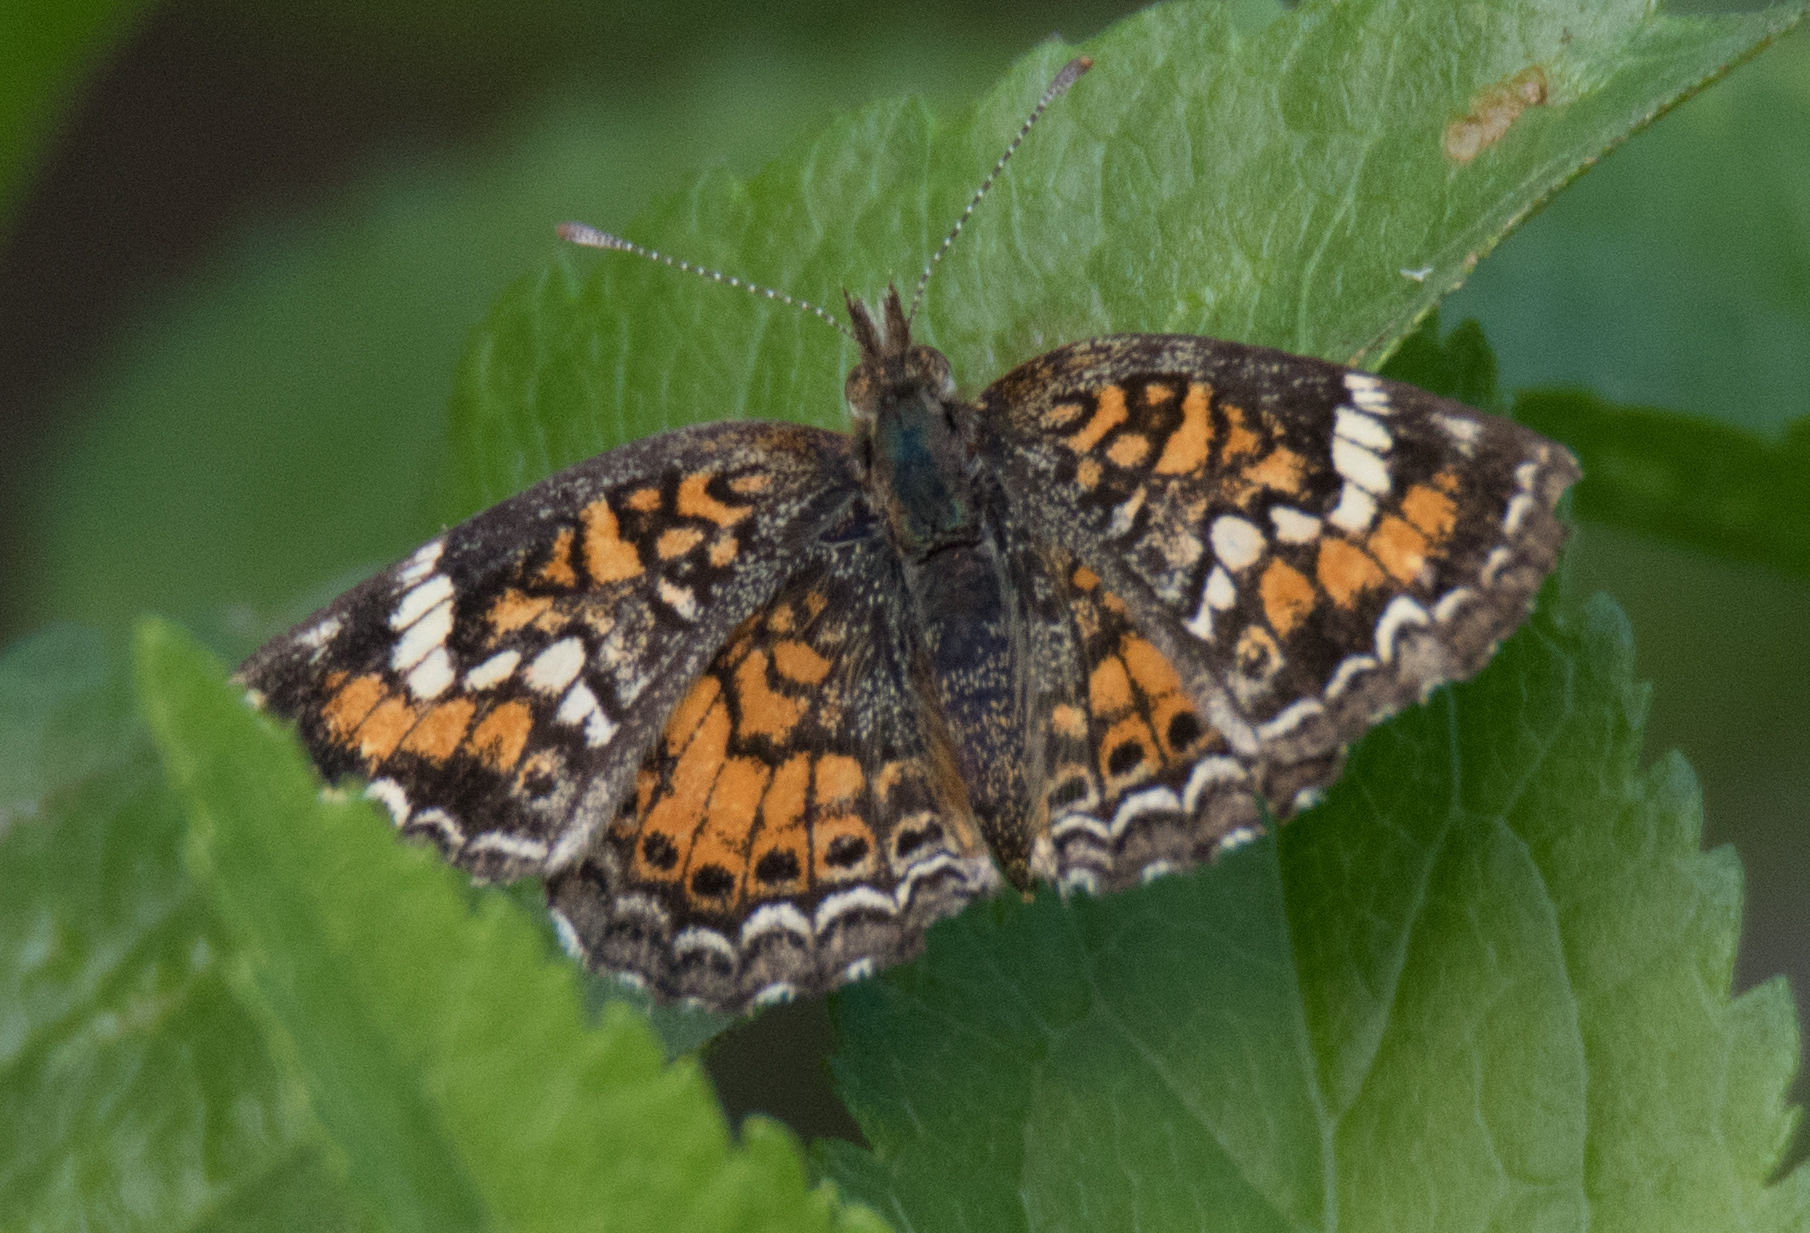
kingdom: Animalia
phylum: Arthropoda
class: Insecta
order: Lepidoptera
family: Nymphalidae
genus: Phyciodes
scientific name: Phyciodes phaon
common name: Phaon crescent
